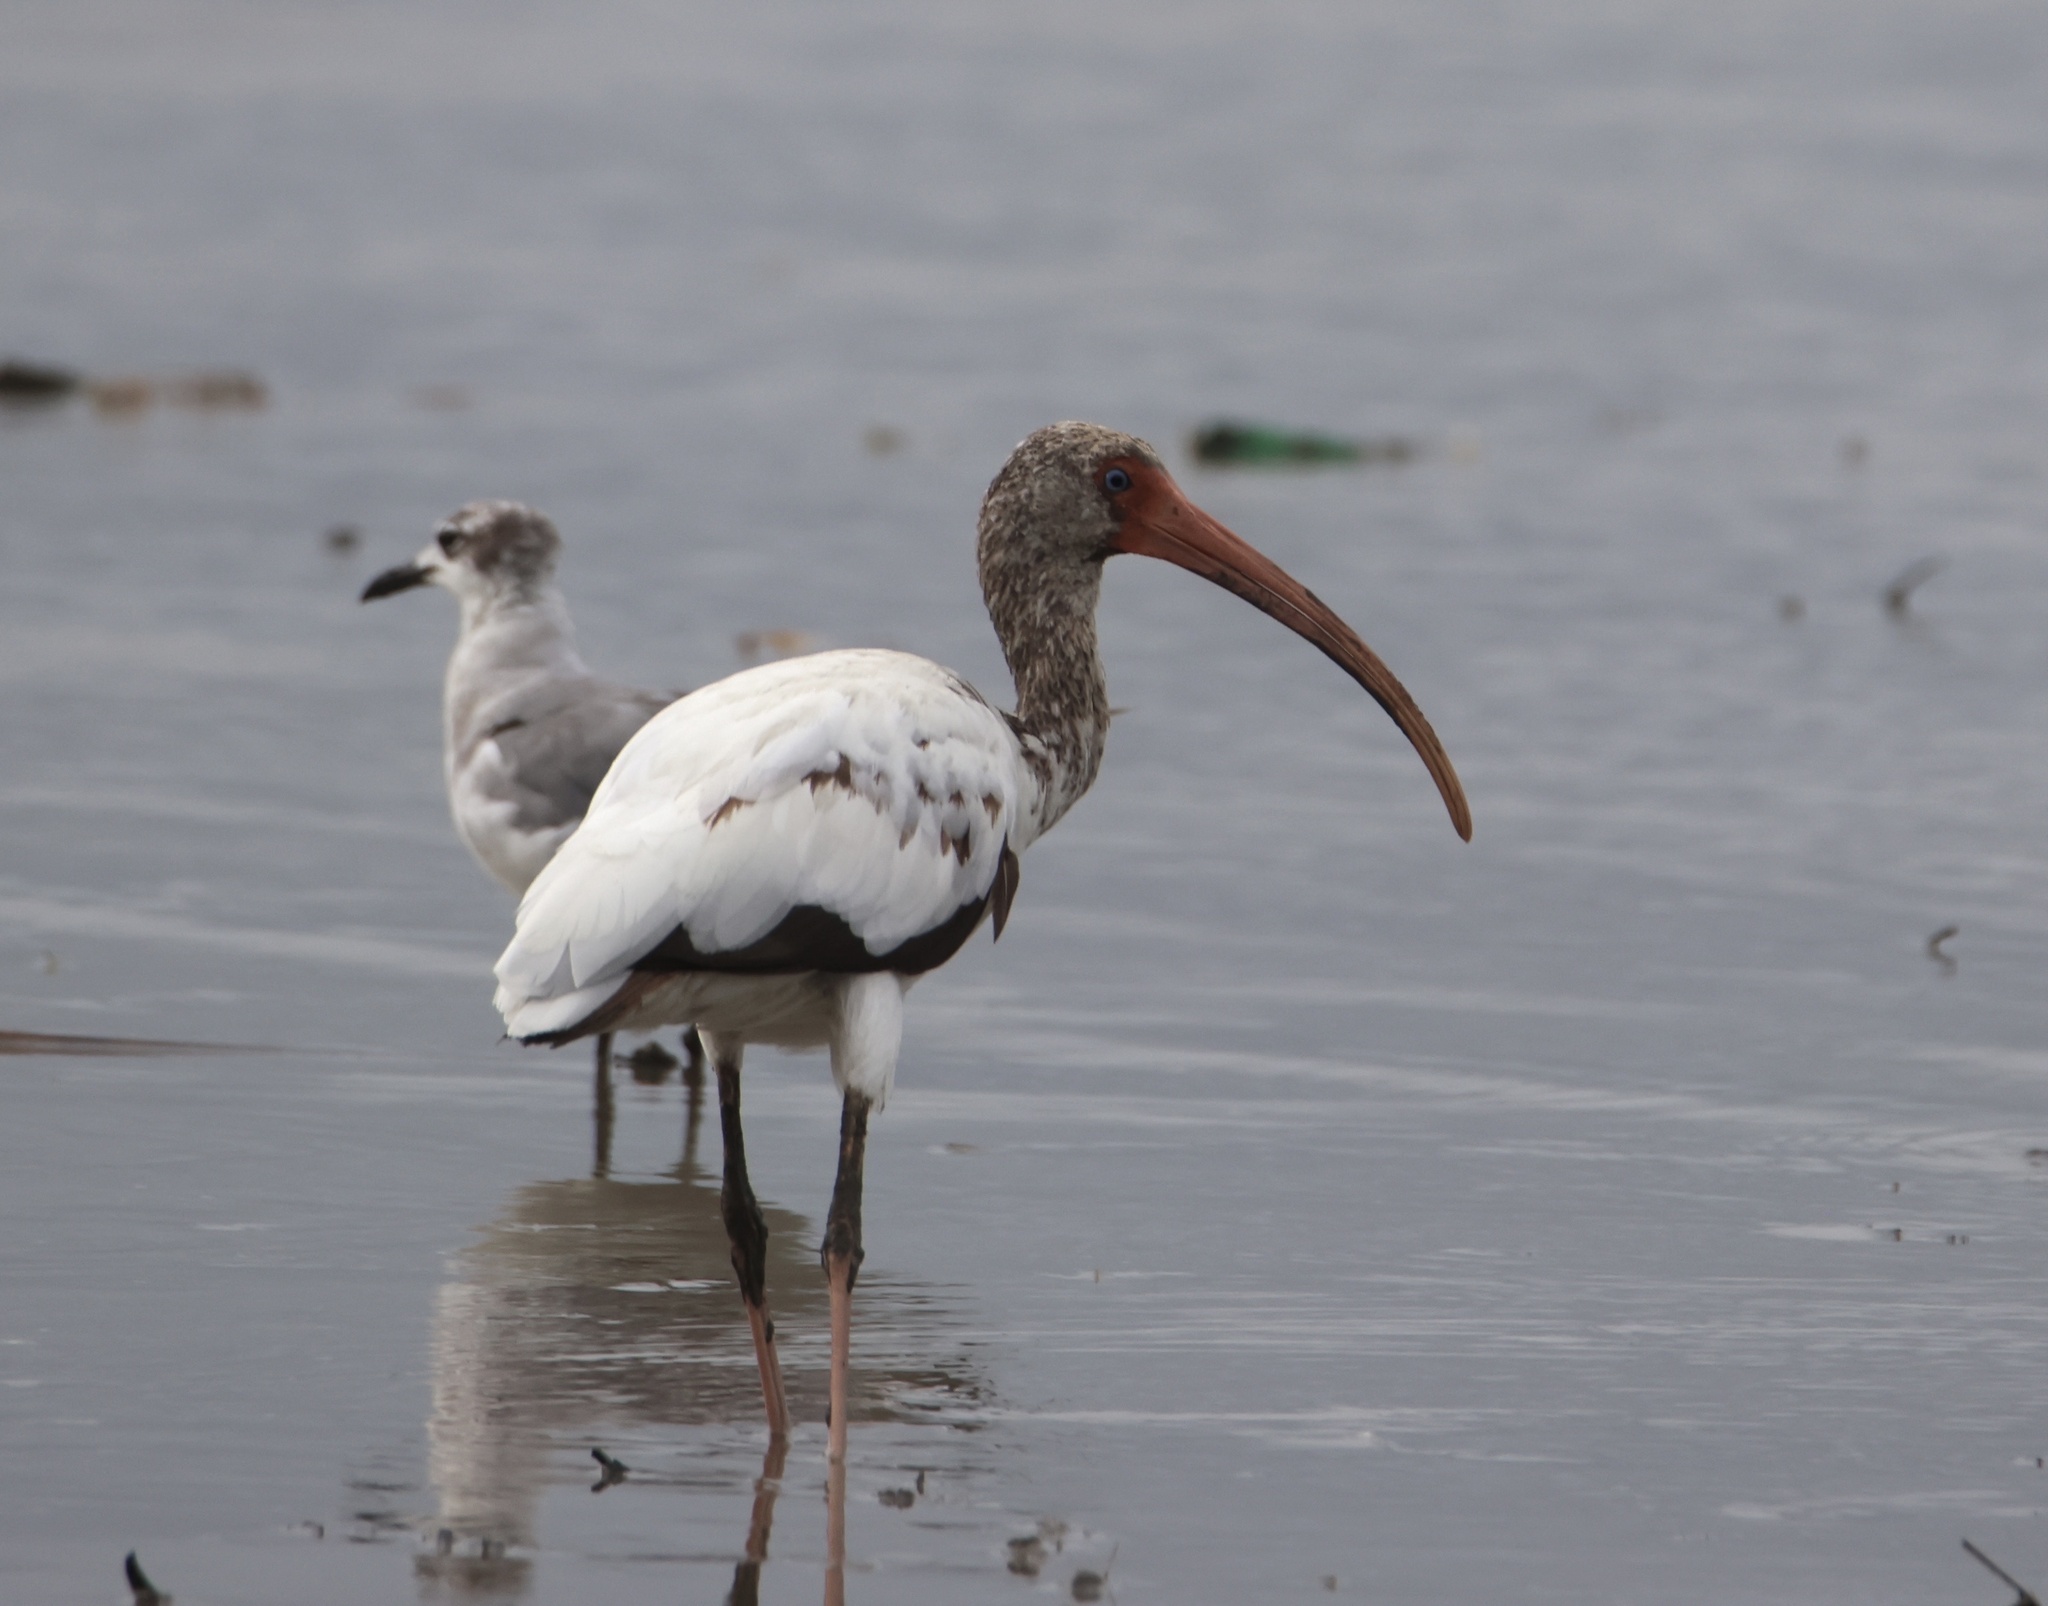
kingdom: Animalia
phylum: Chordata
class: Aves
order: Pelecaniformes
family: Threskiornithidae
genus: Eudocimus
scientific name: Eudocimus albus
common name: White ibis
